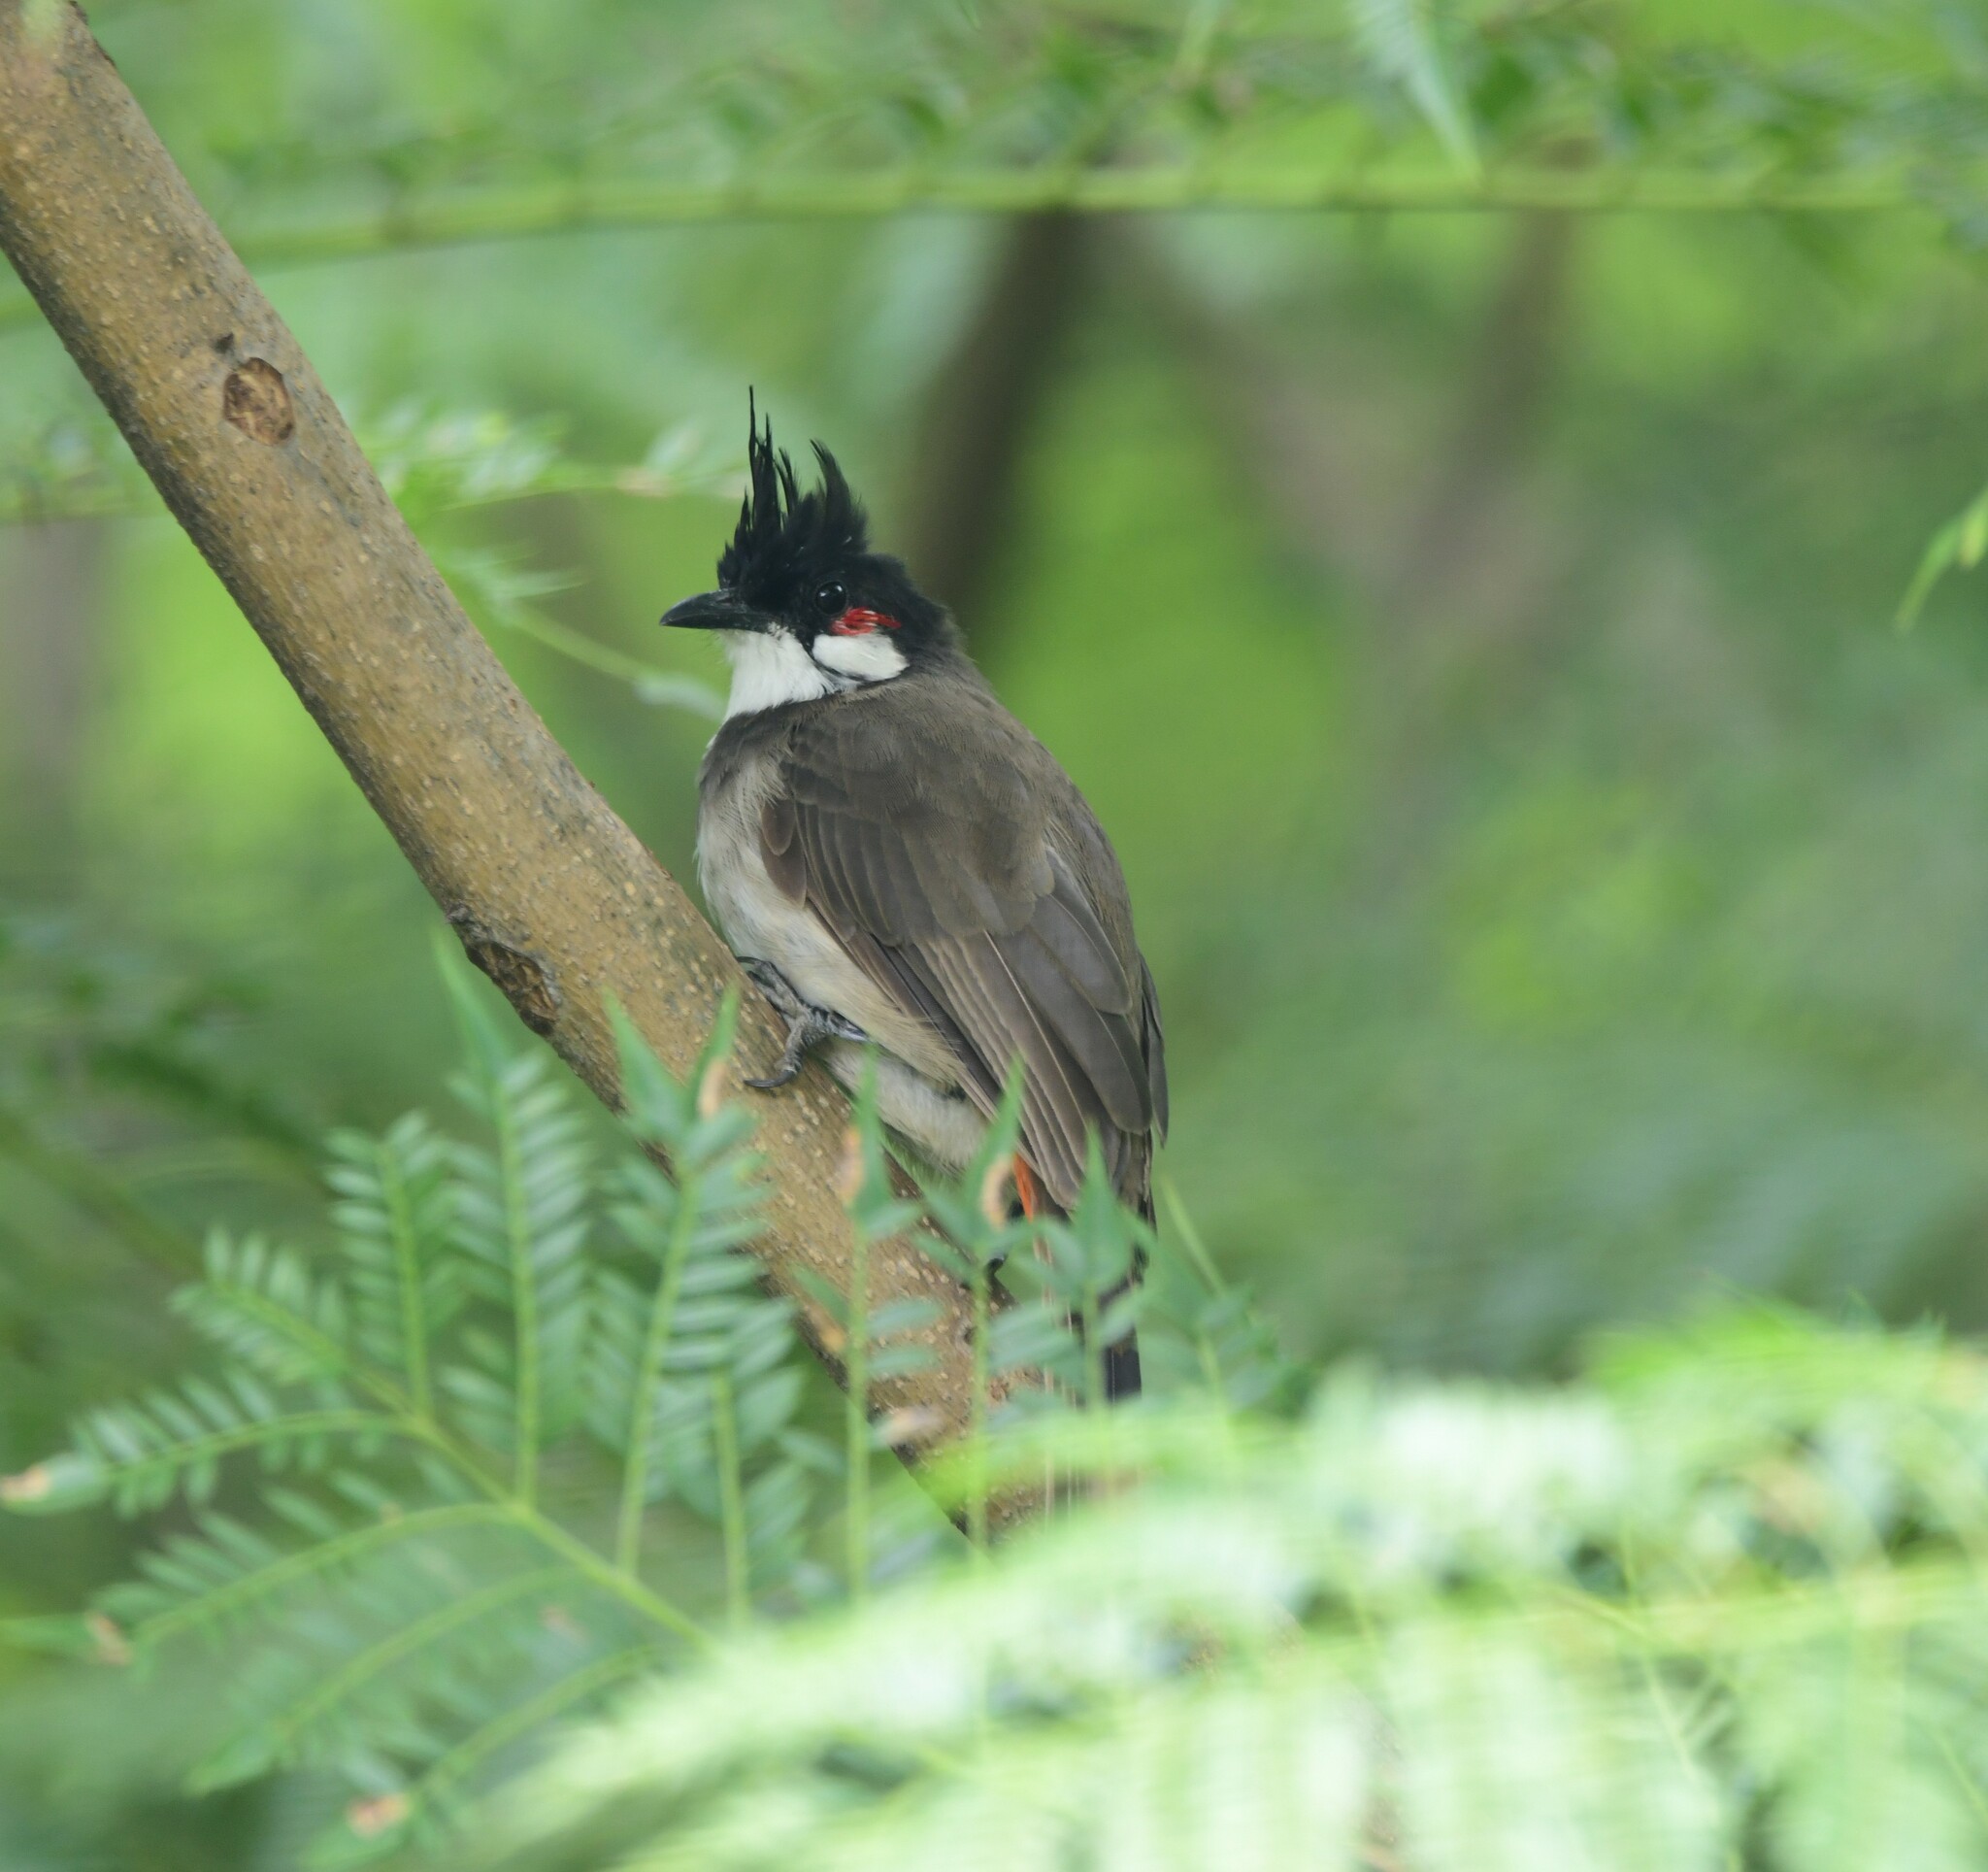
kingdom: Animalia
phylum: Chordata
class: Aves
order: Passeriformes
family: Pycnonotidae
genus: Pycnonotus
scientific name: Pycnonotus jocosus
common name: Red-whiskered bulbul
